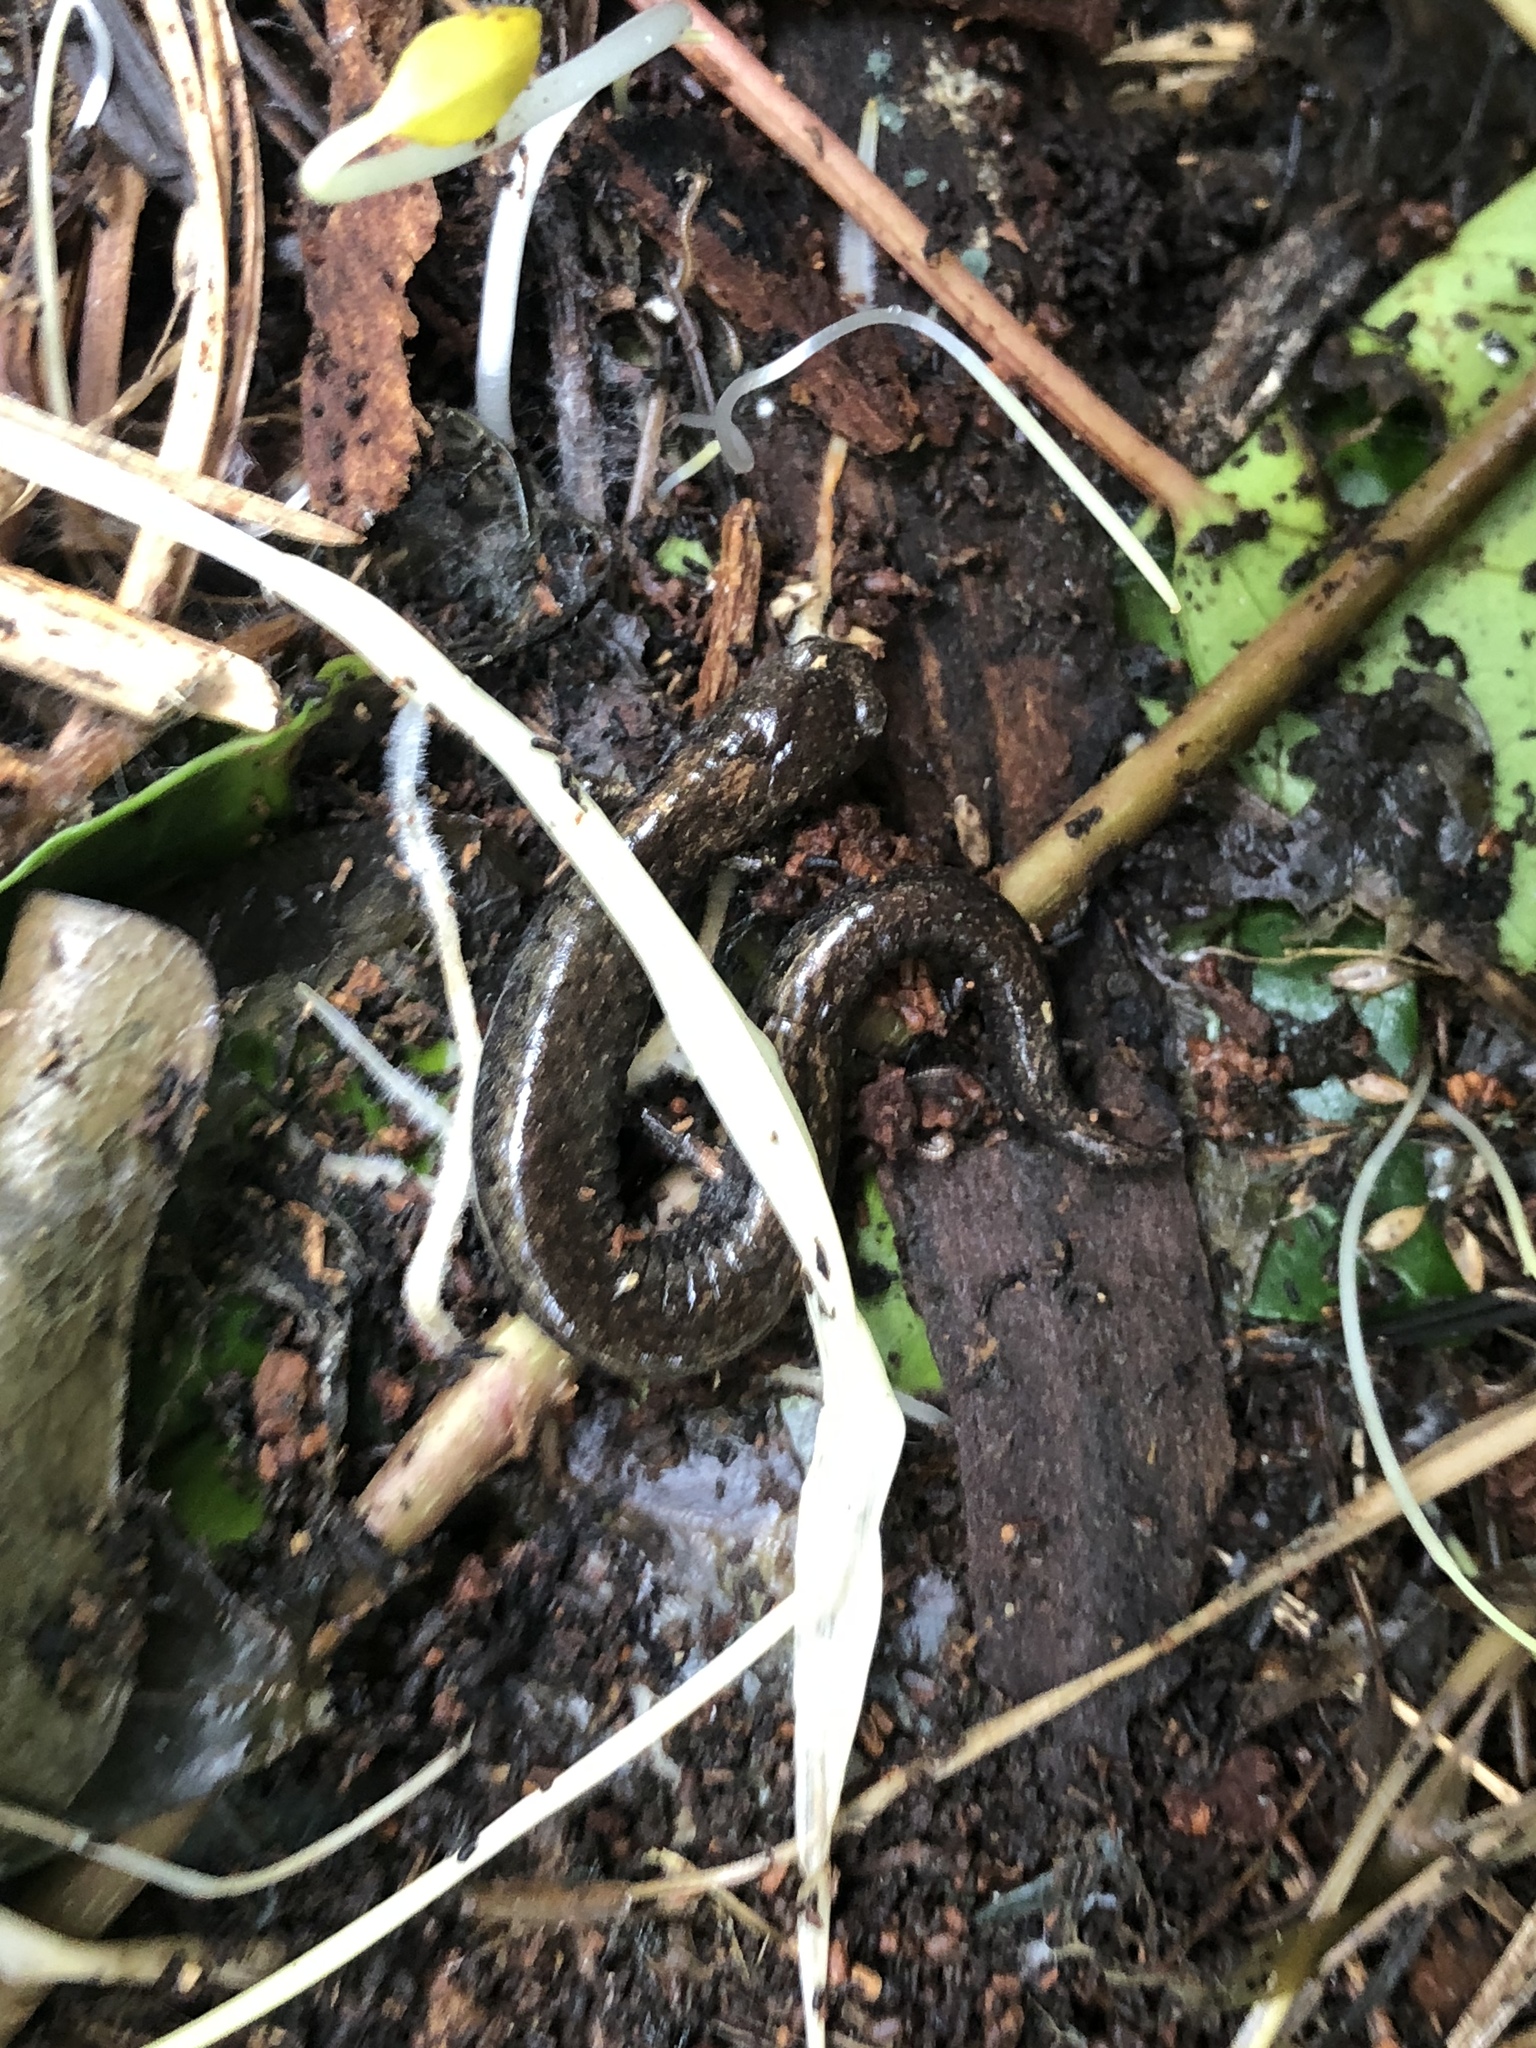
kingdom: Animalia
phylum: Chordata
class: Amphibia
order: Caudata
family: Plethodontidae
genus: Batrachoseps
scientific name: Batrachoseps attenuatus
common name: California slender salamander
